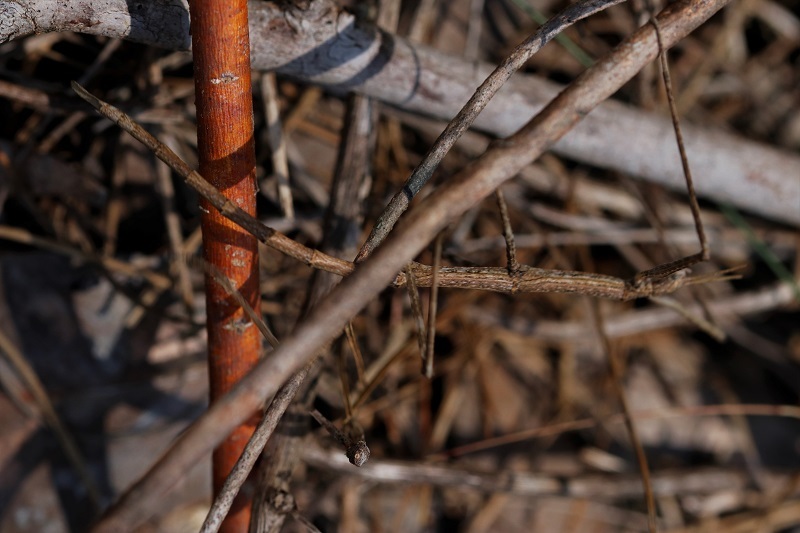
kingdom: Animalia
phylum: Arthropoda
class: Insecta
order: Phasmida
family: Bacillidae
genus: Phalces
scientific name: Phalces brevis
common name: Cape stick insect
